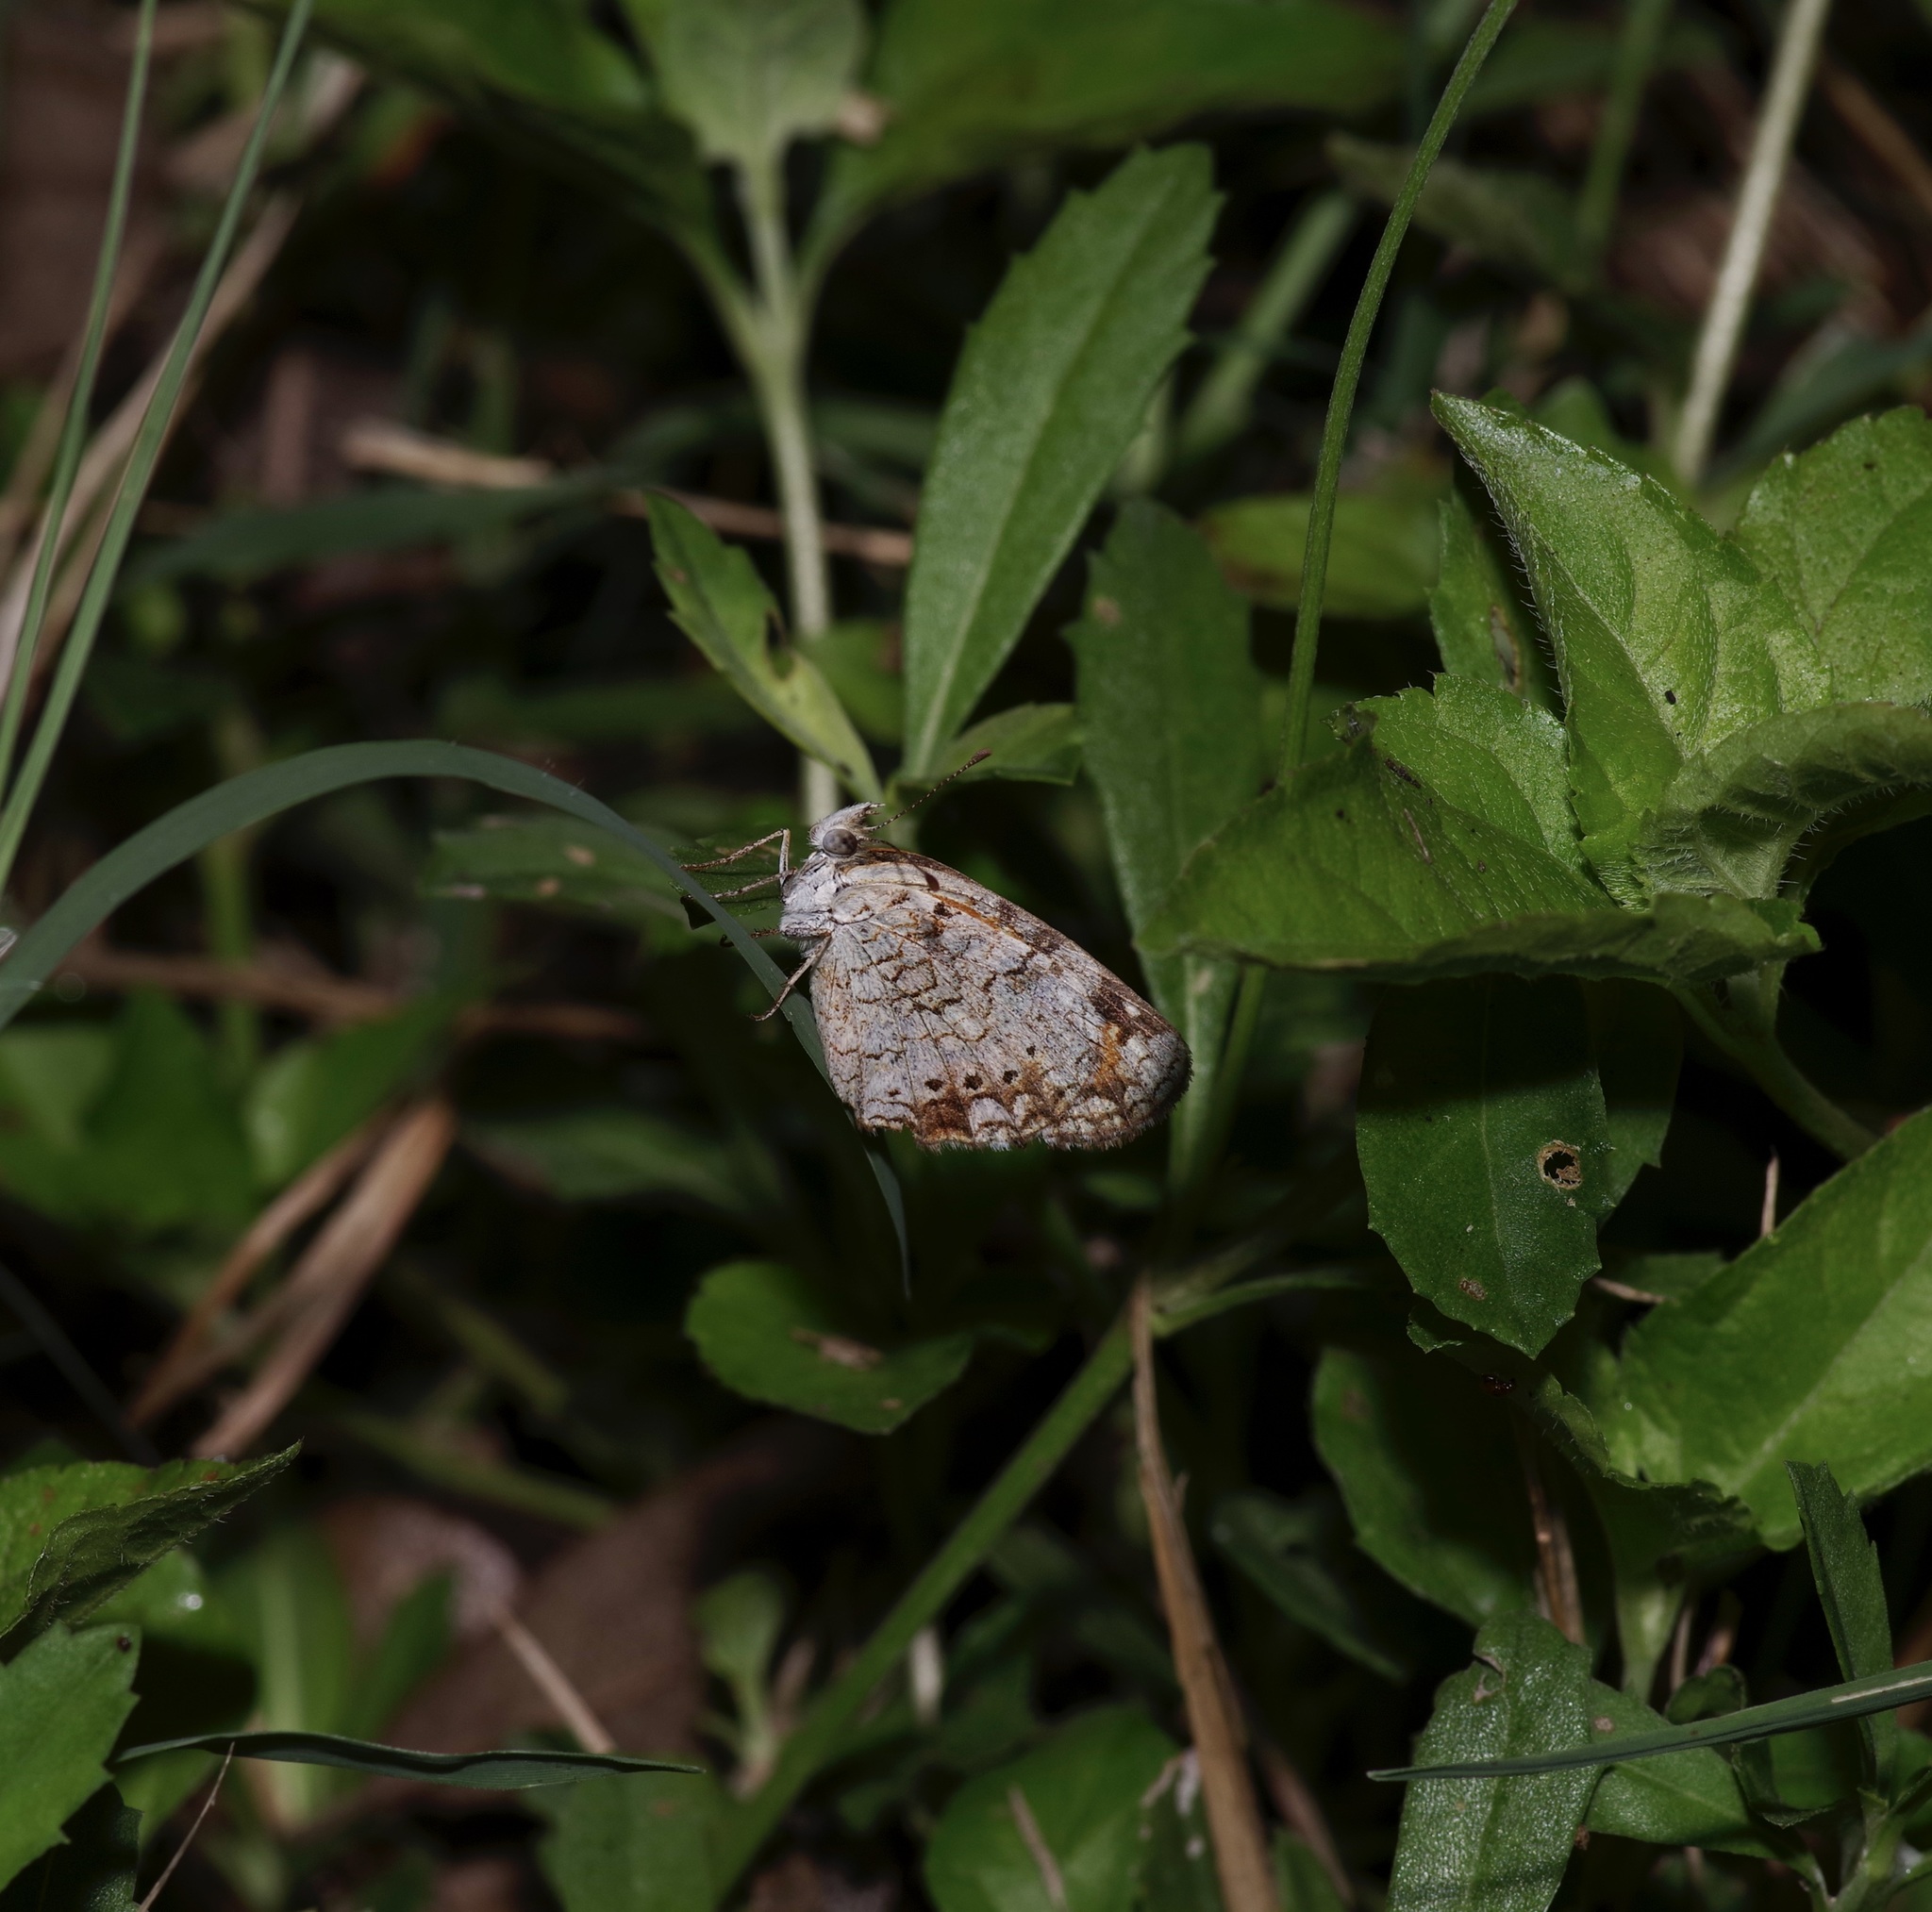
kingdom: Animalia
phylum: Arthropoda
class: Insecta
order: Lepidoptera
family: Nymphalidae
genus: Phyciodes
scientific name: Phyciodes phaon
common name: Phaon crescent
